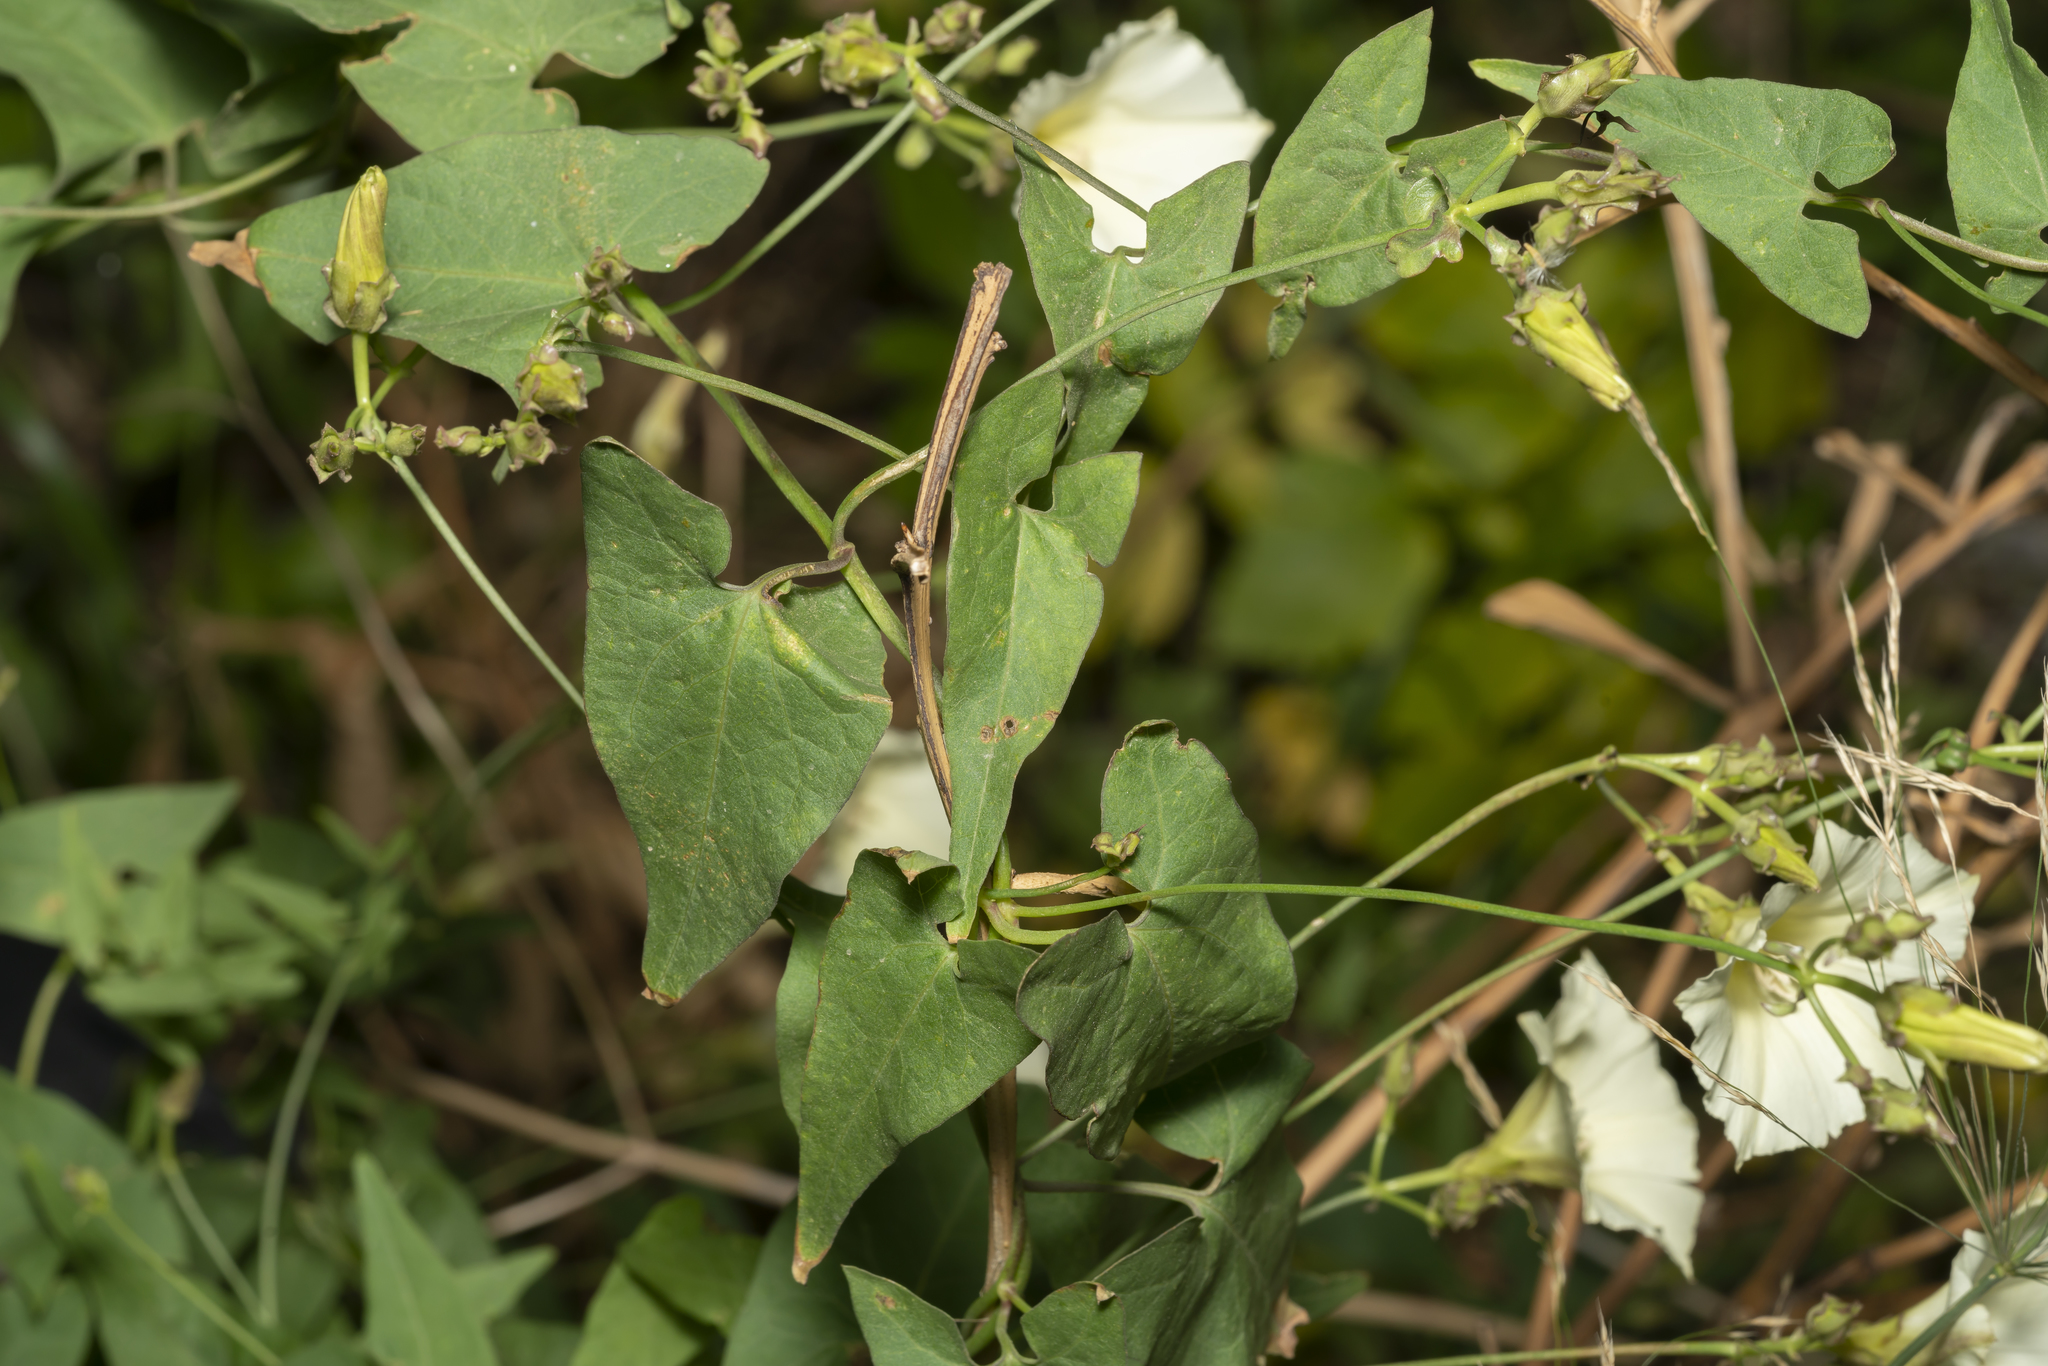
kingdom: Plantae
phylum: Tracheophyta
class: Magnoliopsida
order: Solanales
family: Convolvulaceae
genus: Convolvulus
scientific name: Convolvulus scammonia
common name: Scammony
